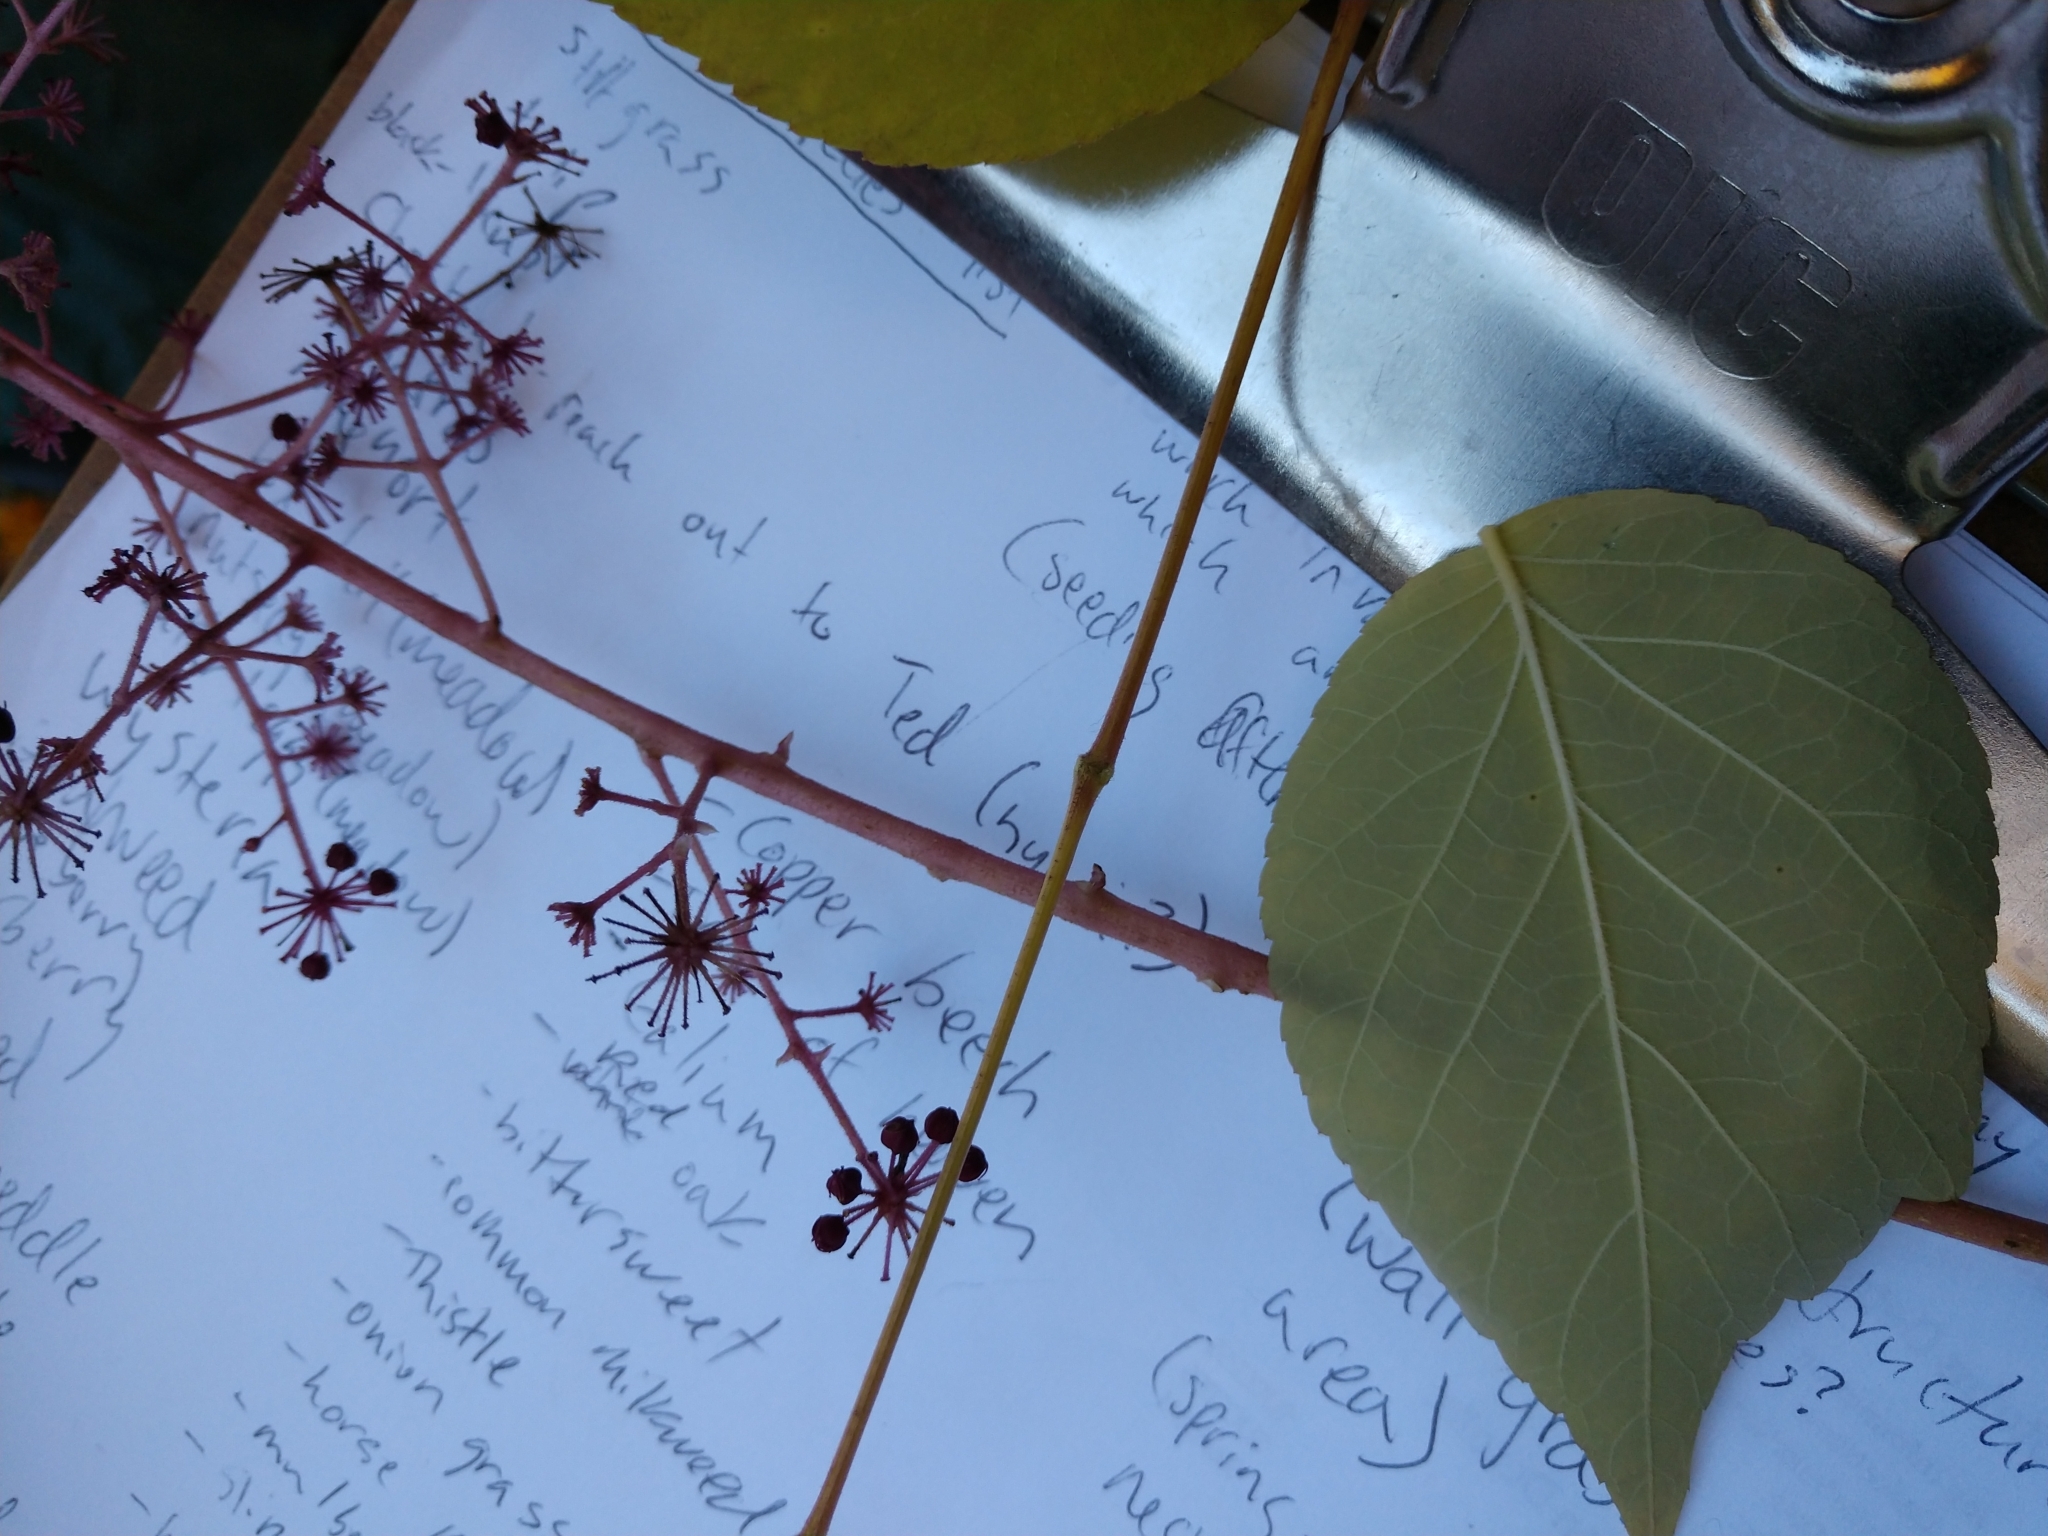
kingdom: Plantae
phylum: Tracheophyta
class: Magnoliopsida
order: Apiales
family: Araliaceae
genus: Aralia
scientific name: Aralia elata
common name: Japanese angelica-tree
